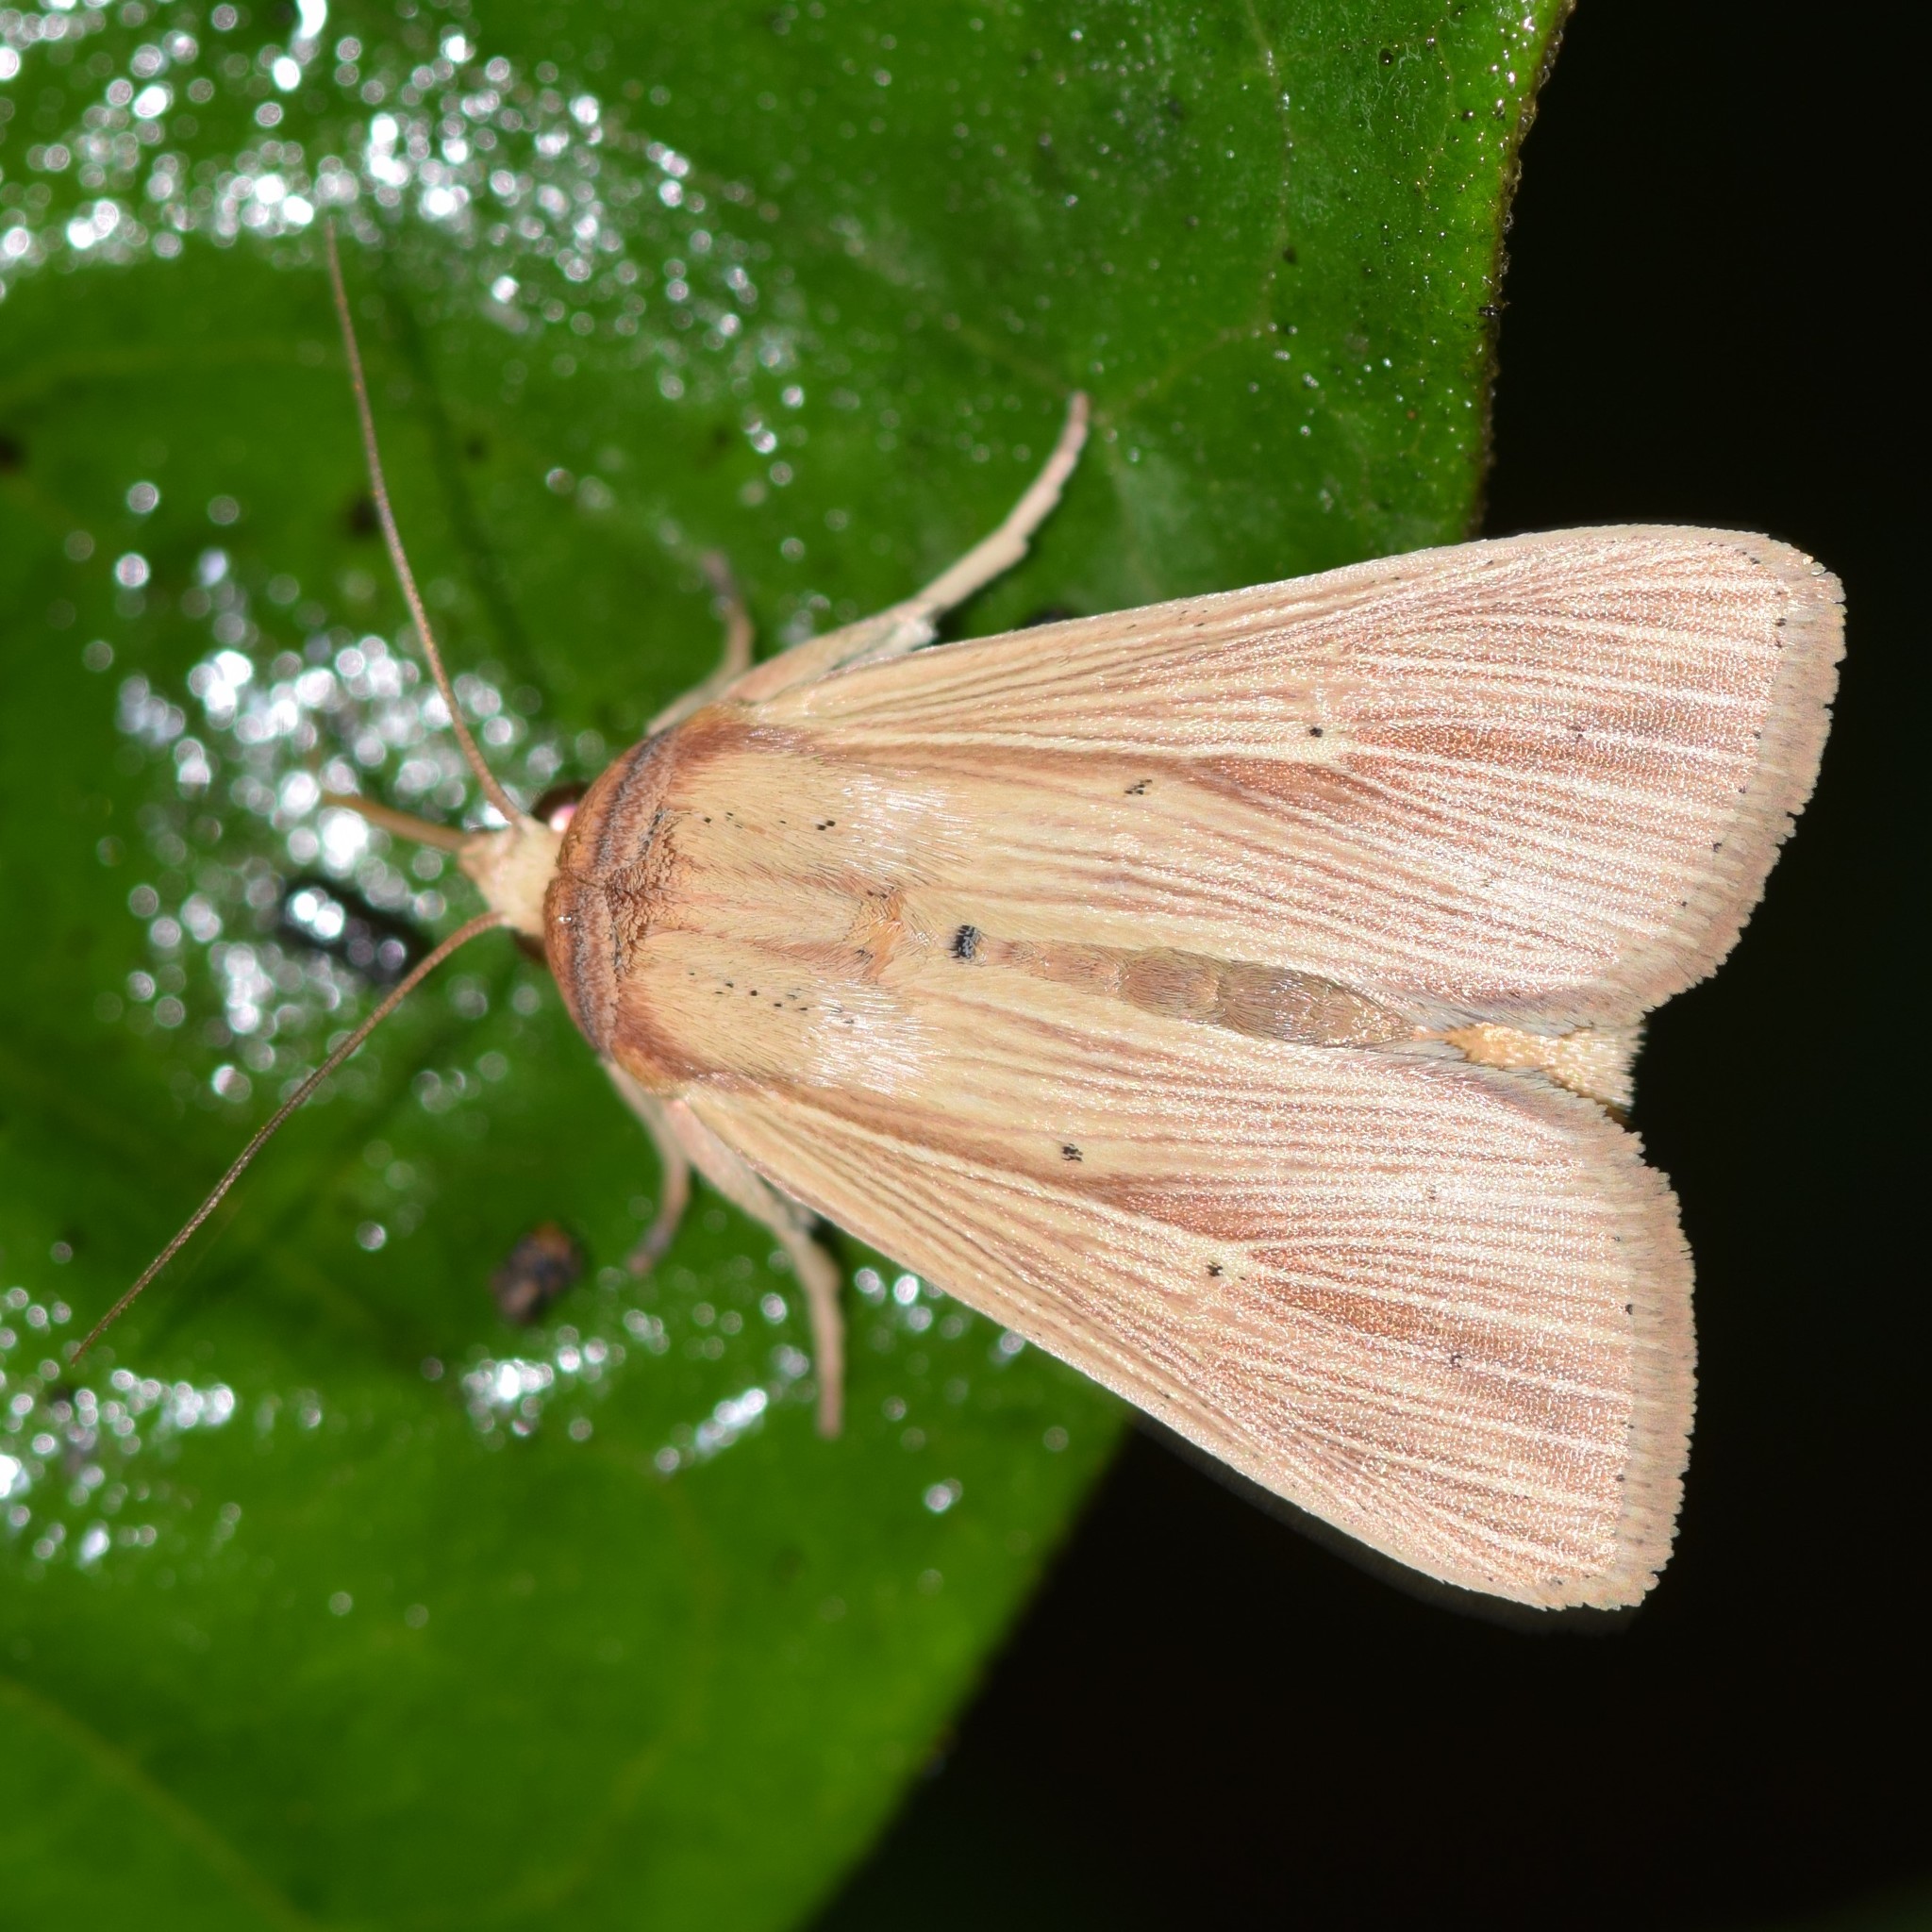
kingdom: Animalia
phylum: Arthropoda
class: Insecta
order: Lepidoptera
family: Noctuidae
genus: Leucania
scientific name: Leucania adjuta
